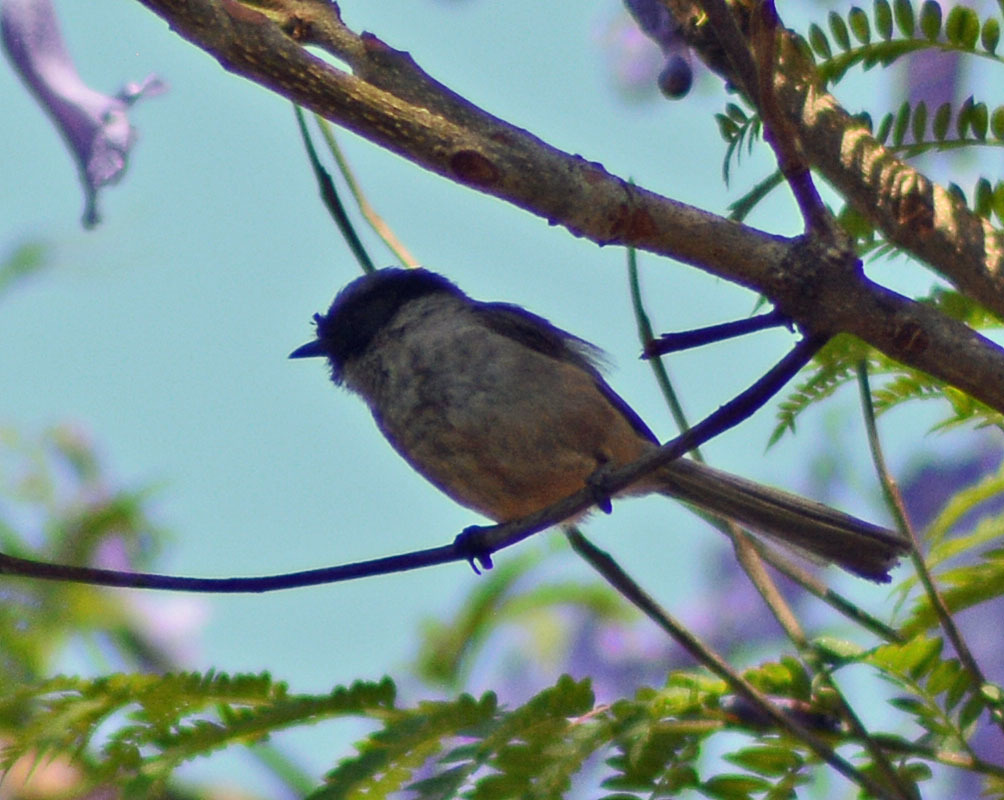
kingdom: Animalia
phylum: Chordata
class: Aves
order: Passeriformes
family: Aegithalidae
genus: Psaltriparus
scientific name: Psaltriparus minimus
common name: American bushtit
